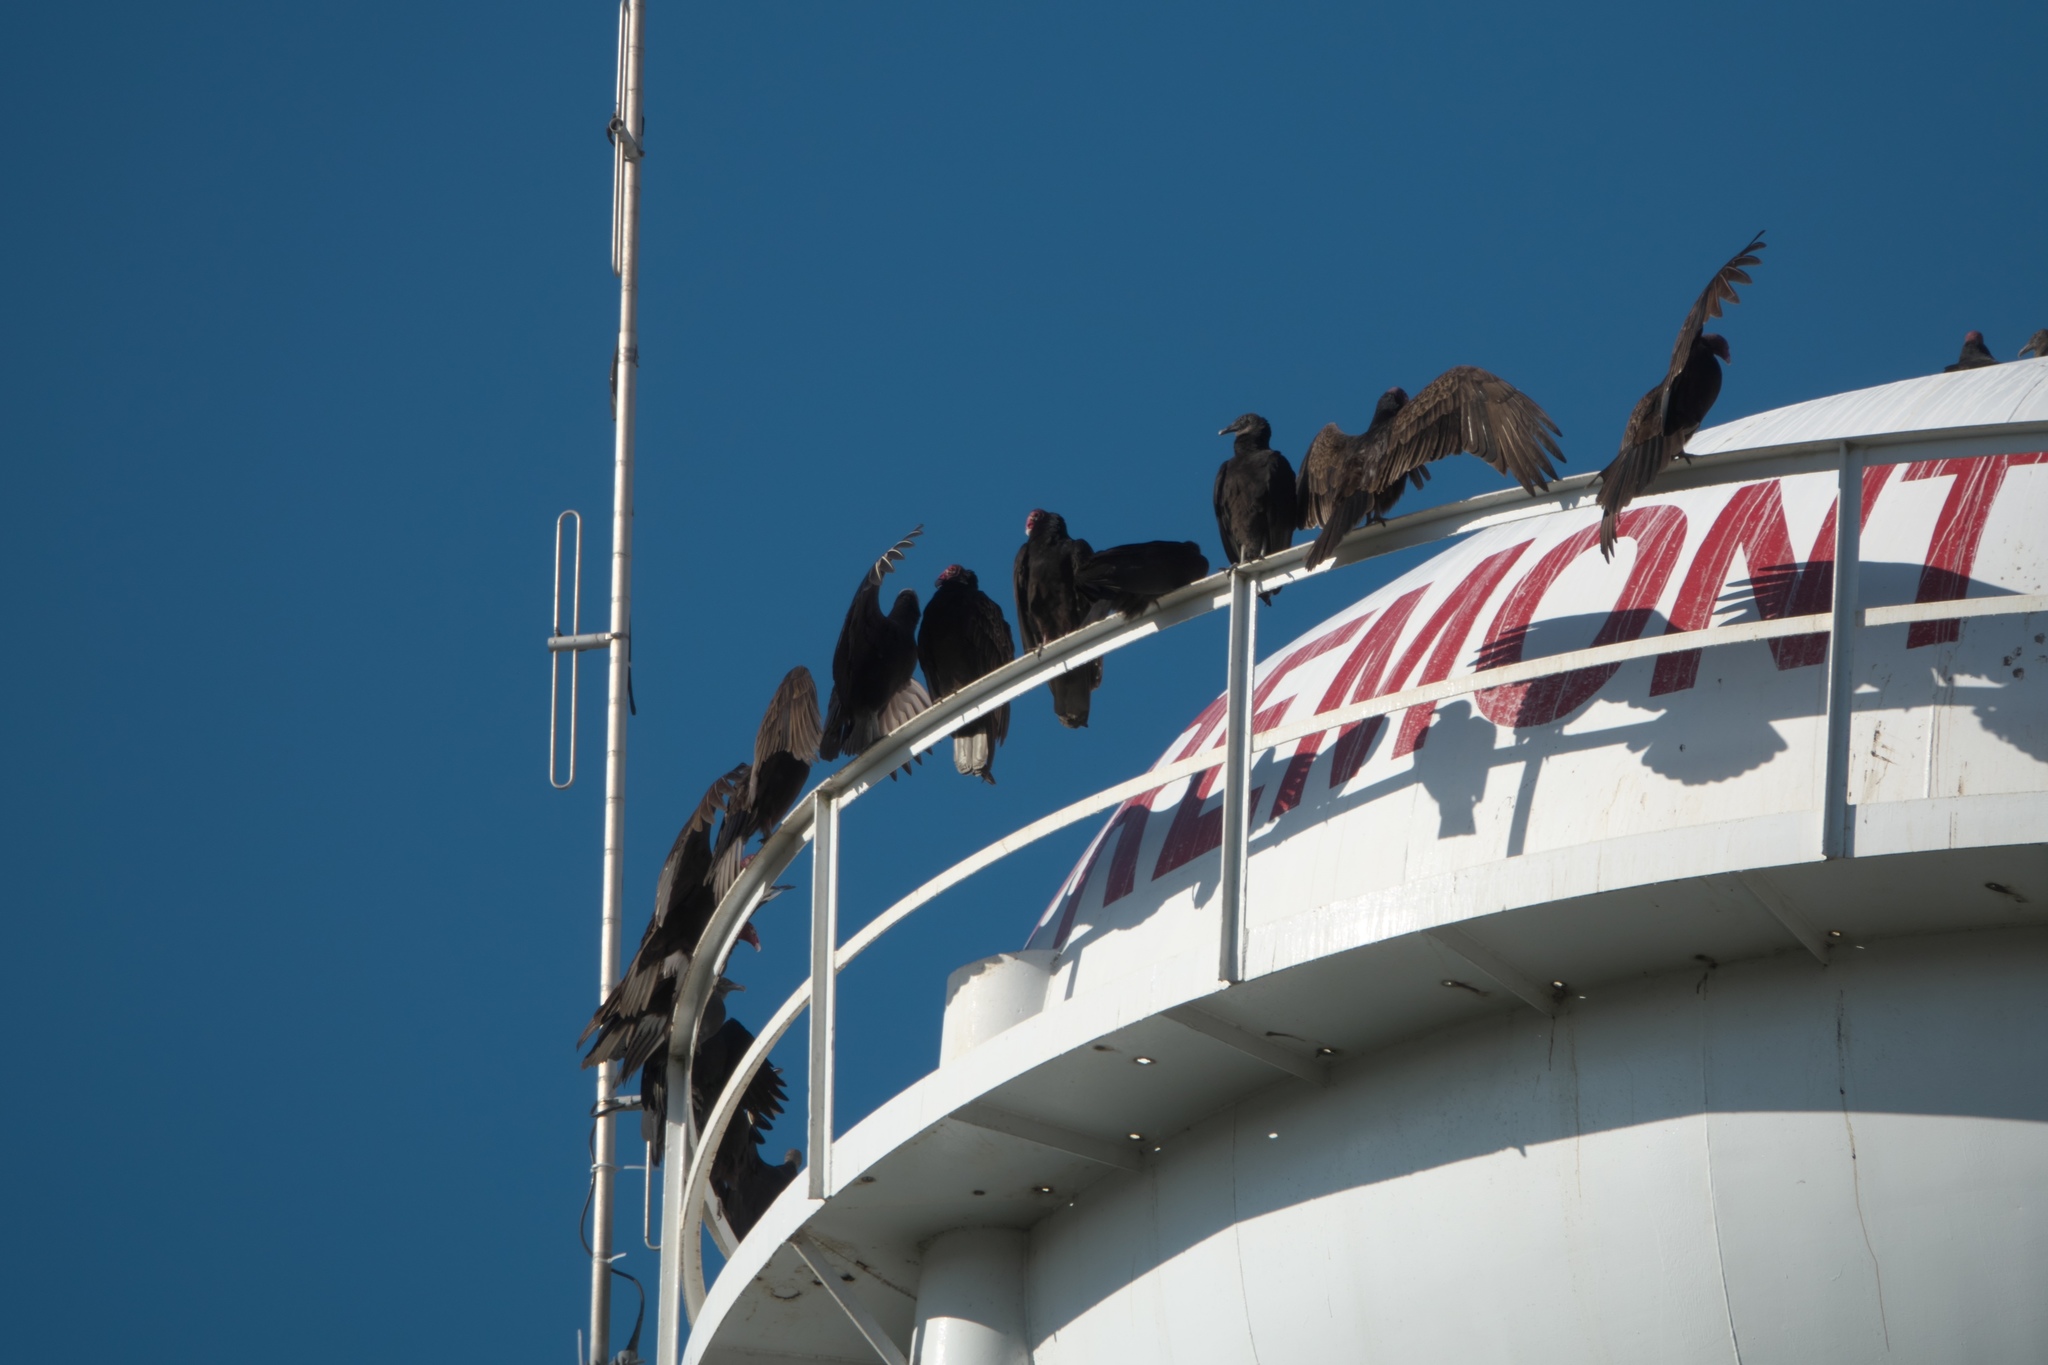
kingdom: Animalia
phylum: Chordata
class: Aves
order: Accipitriformes
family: Cathartidae
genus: Cathartes
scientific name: Cathartes aura
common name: Turkey vulture
